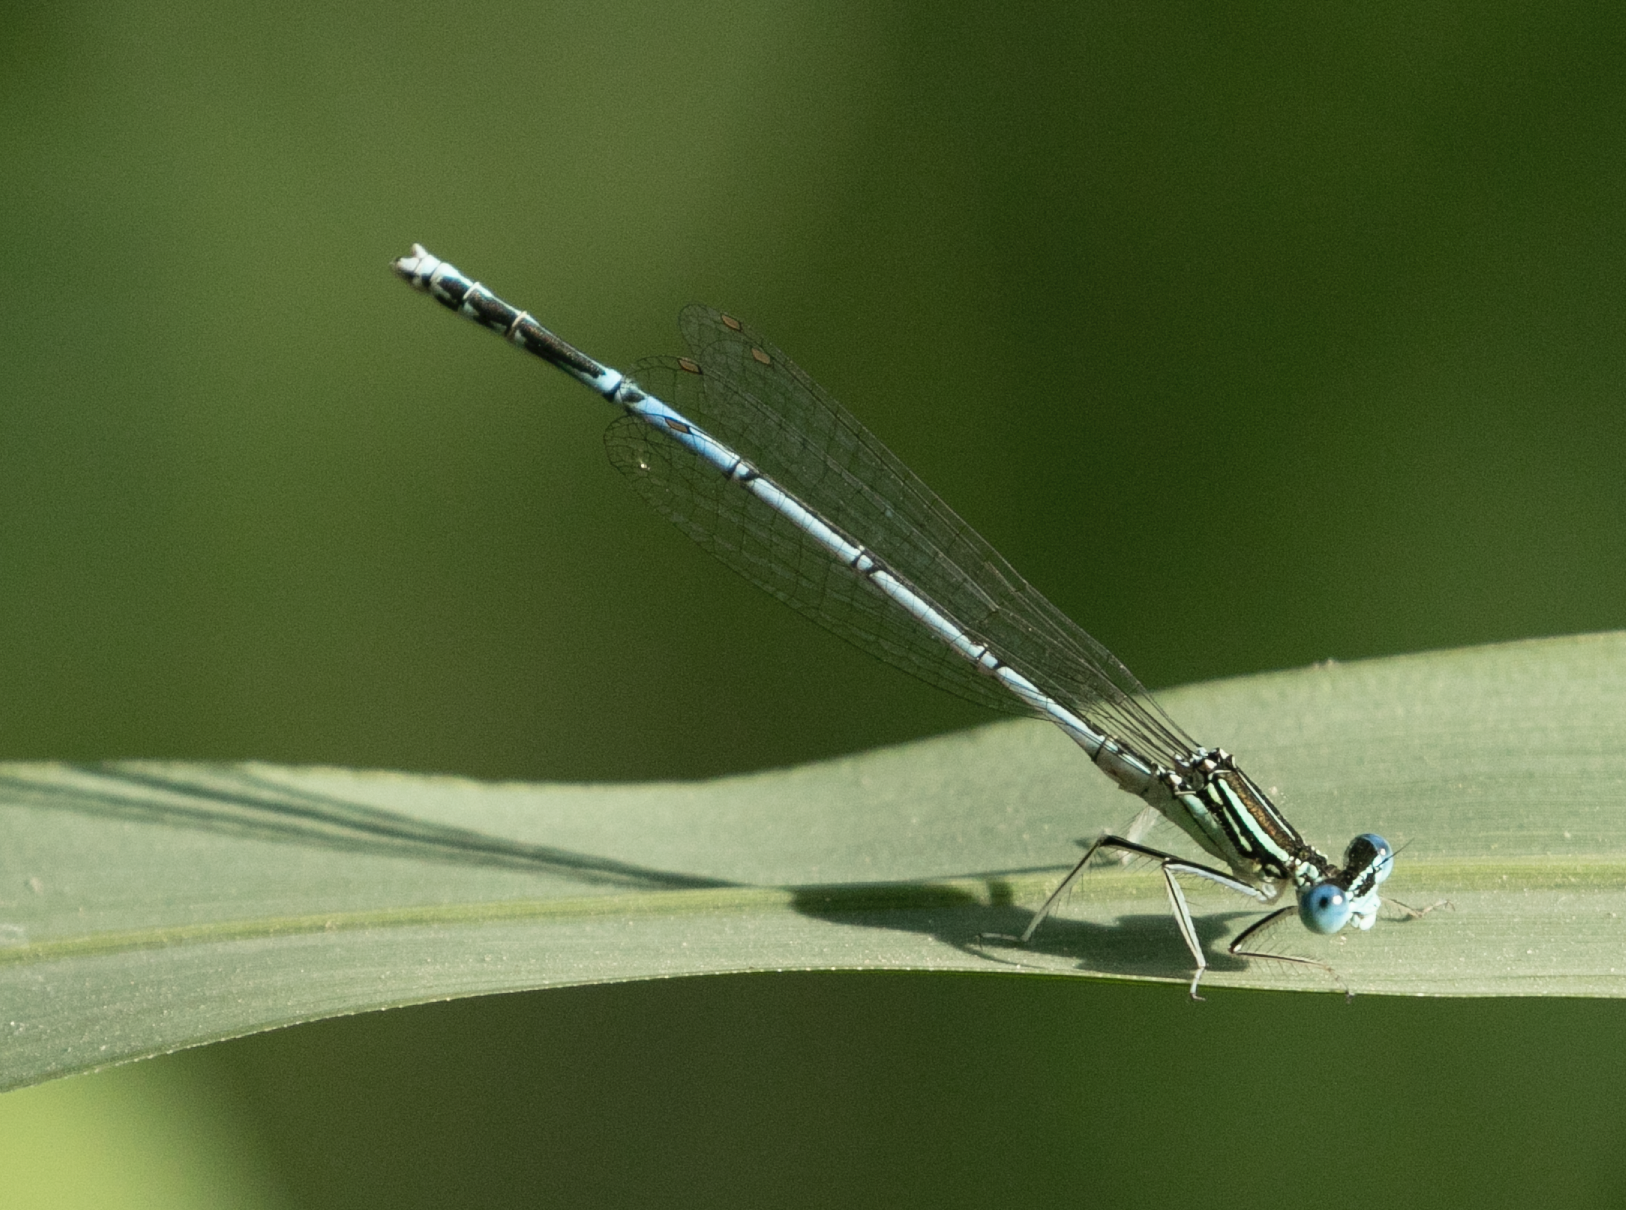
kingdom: Animalia
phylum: Arthropoda
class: Insecta
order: Odonata
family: Platycnemididae
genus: Platycnemis
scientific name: Platycnemis pennipes
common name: White-legged damselfly
